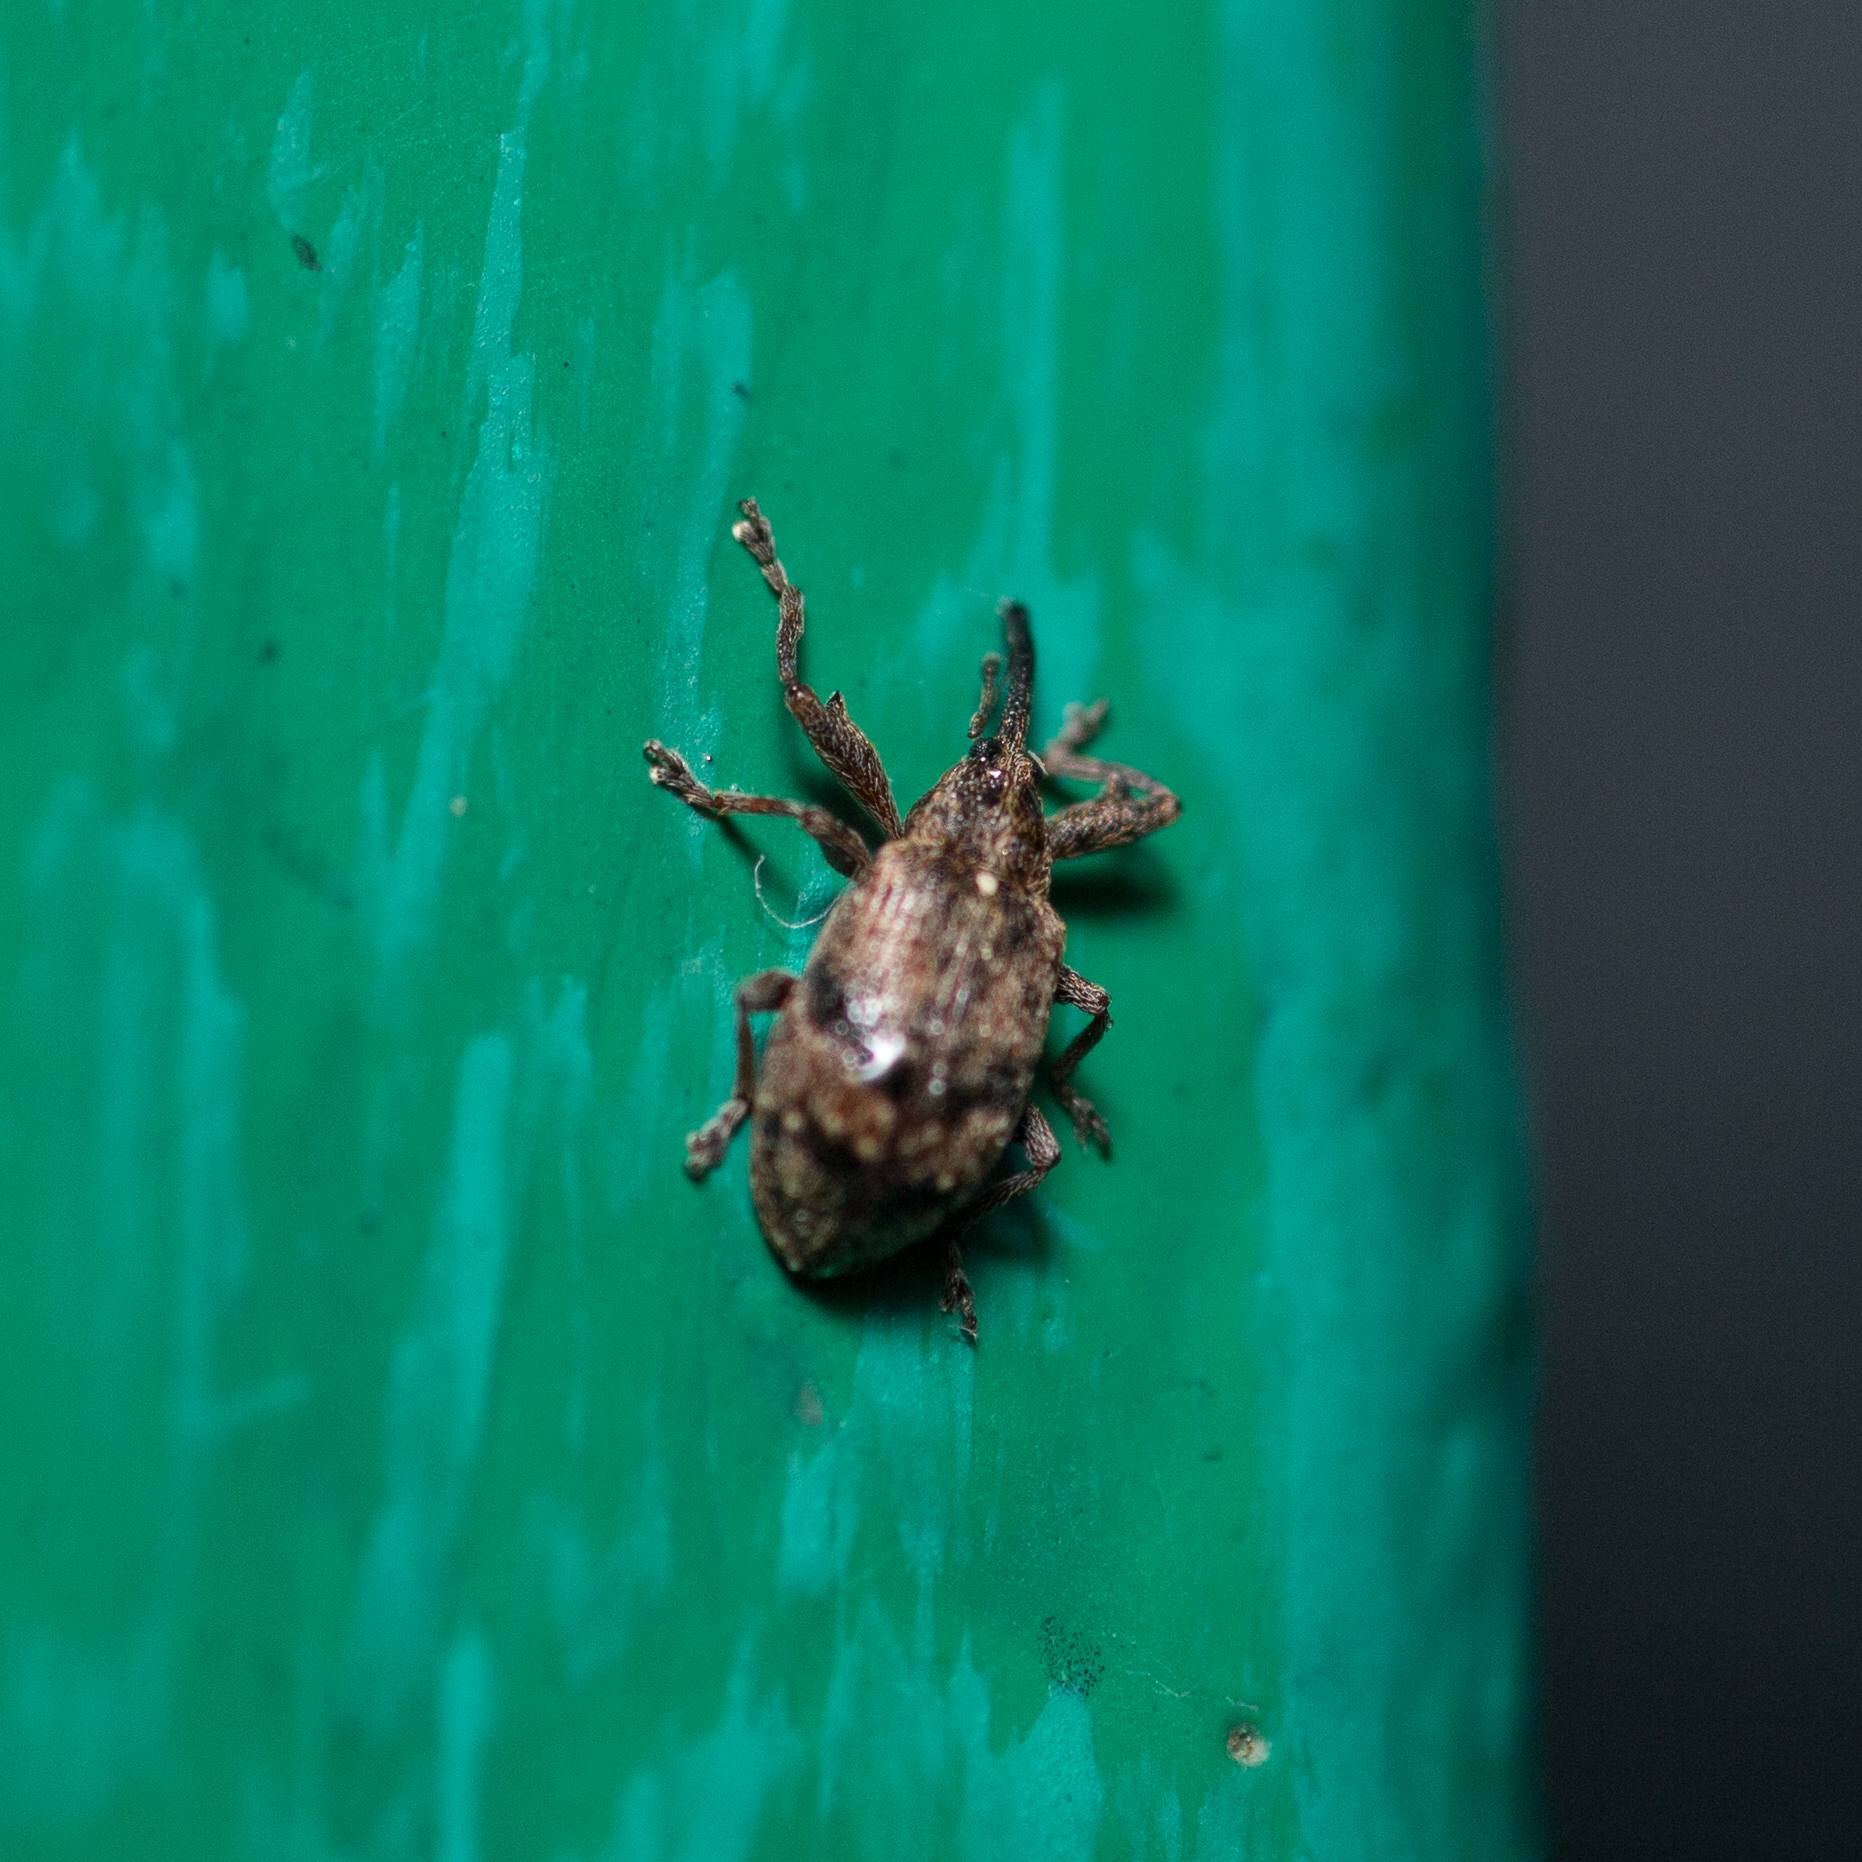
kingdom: Animalia
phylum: Arthropoda
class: Insecta
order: Coleoptera
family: Curculionidae
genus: Anthonomus
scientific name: Anthonomus pomorum
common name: Apple-blossom weevil
